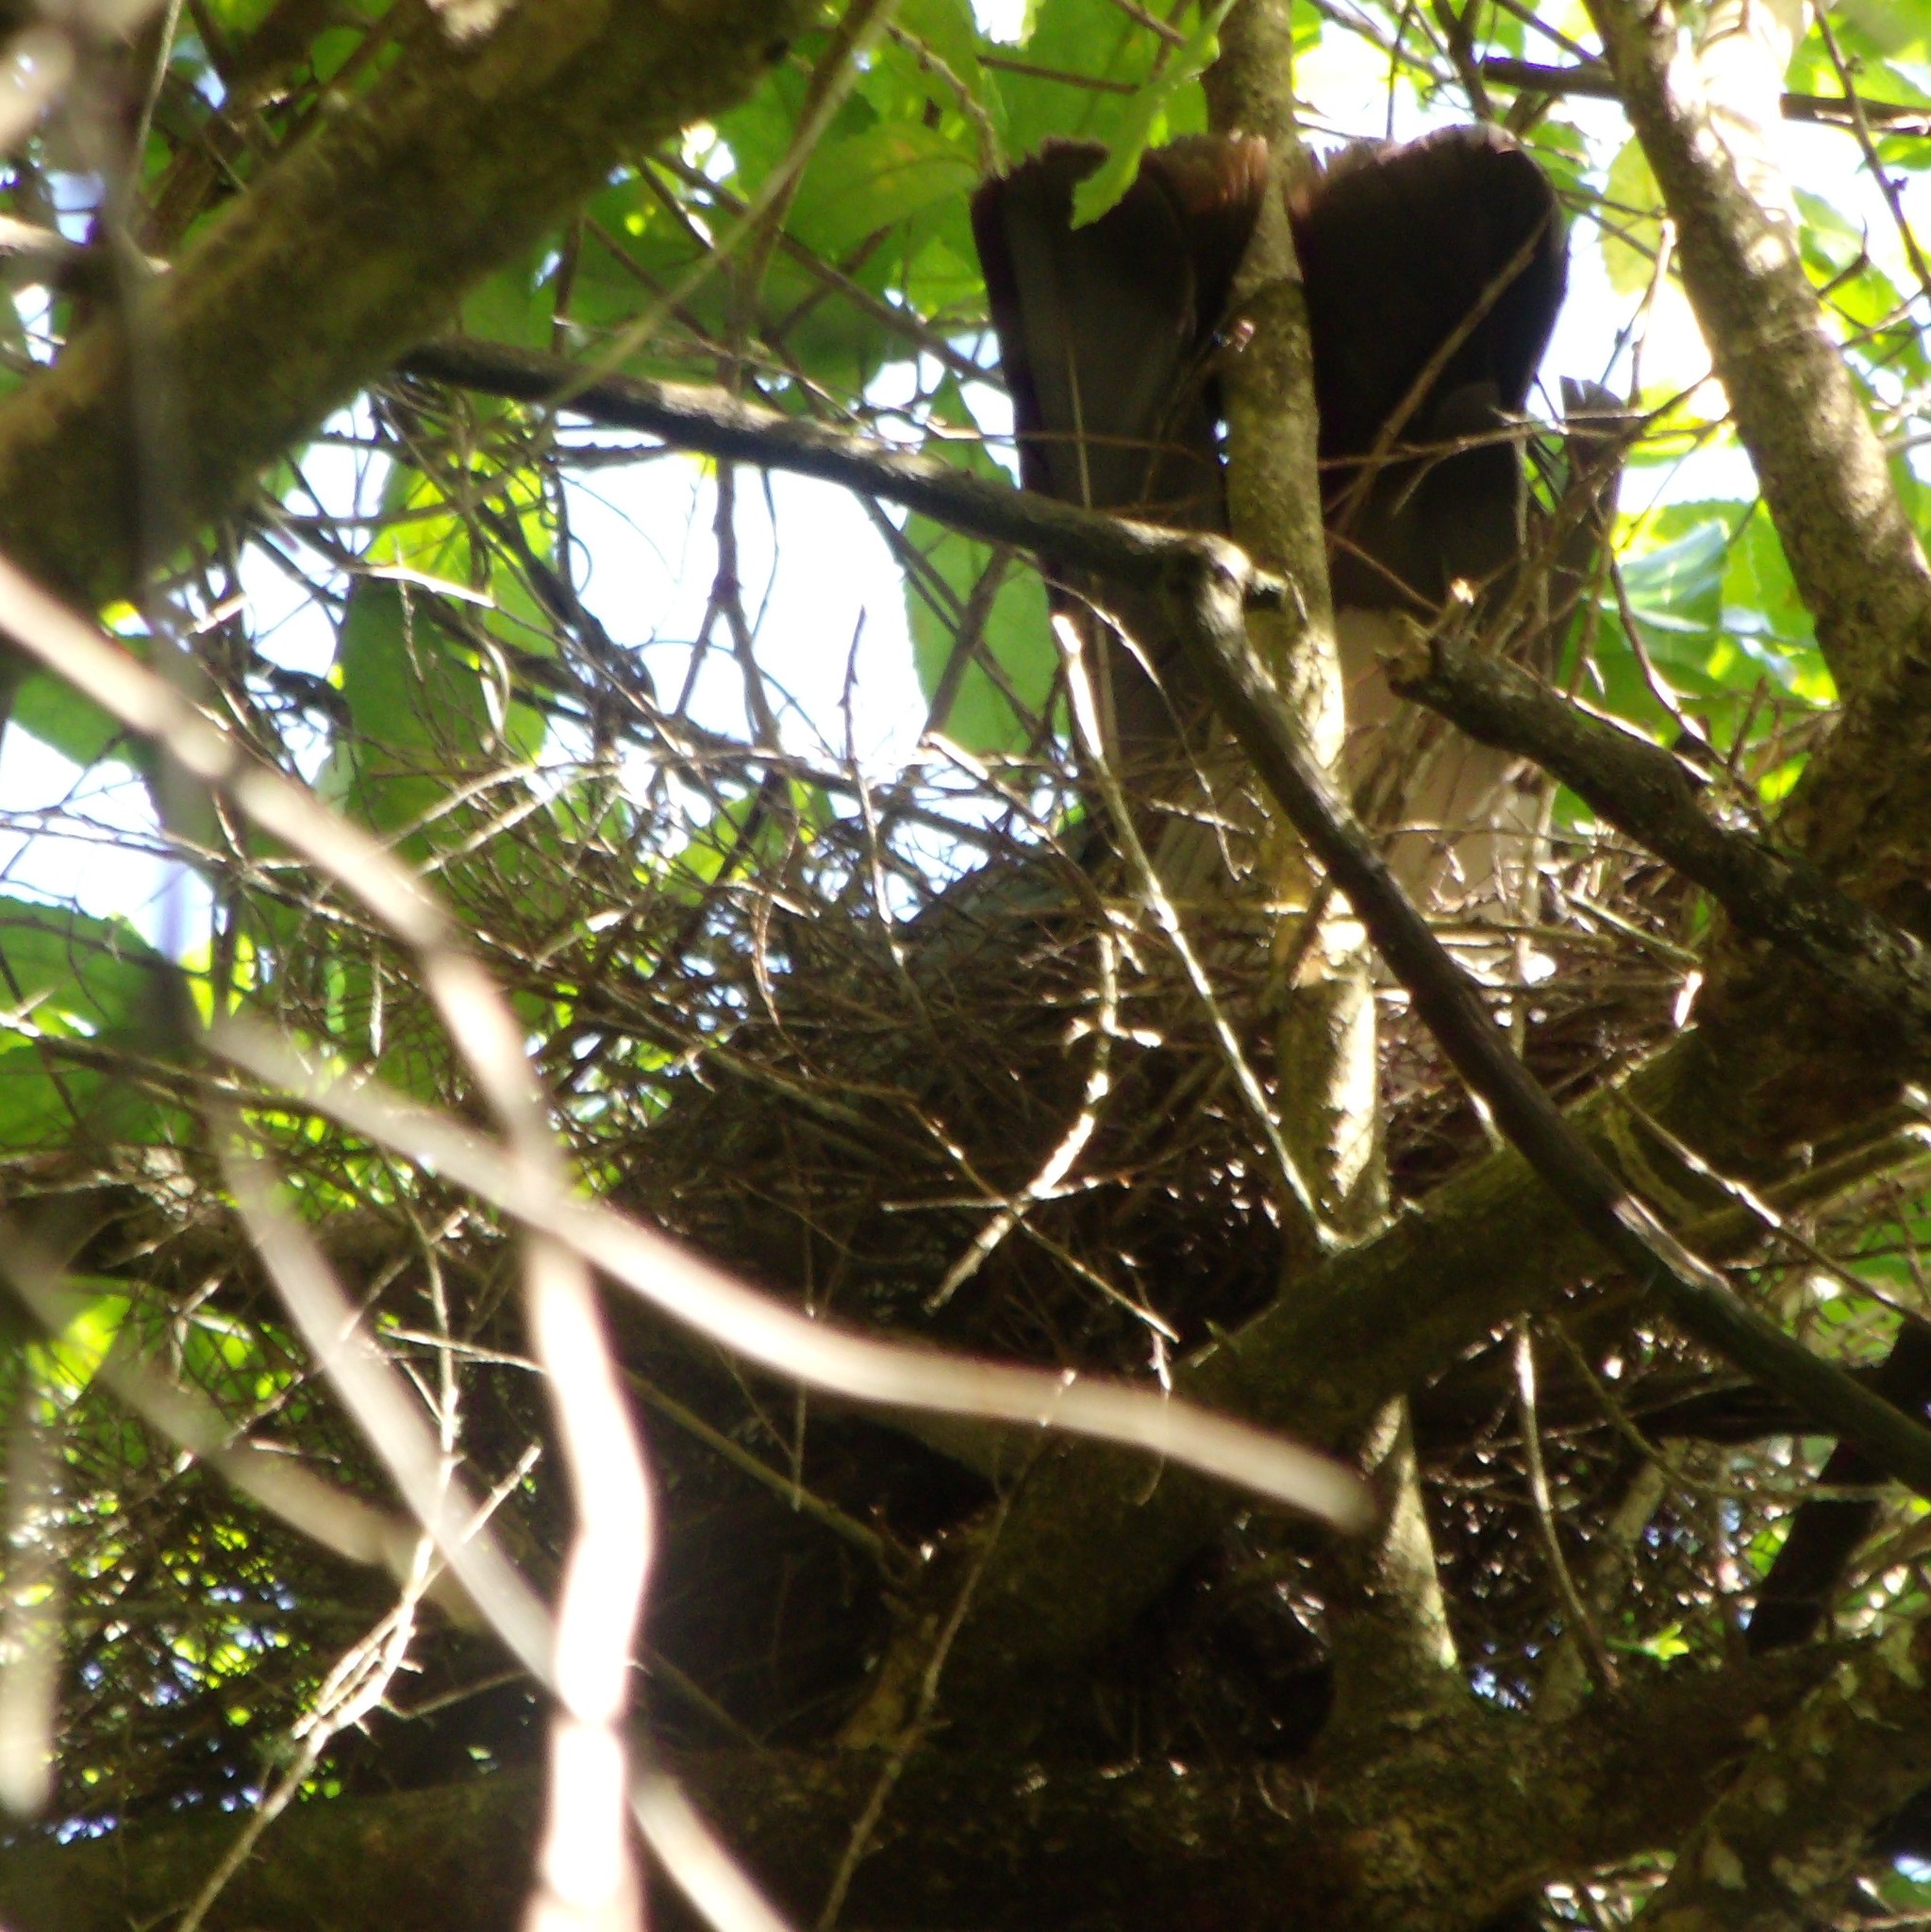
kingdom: Animalia
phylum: Chordata
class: Aves
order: Columbiformes
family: Columbidae
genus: Hemiphaga
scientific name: Hemiphaga novaeseelandiae
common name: New zealand pigeon
